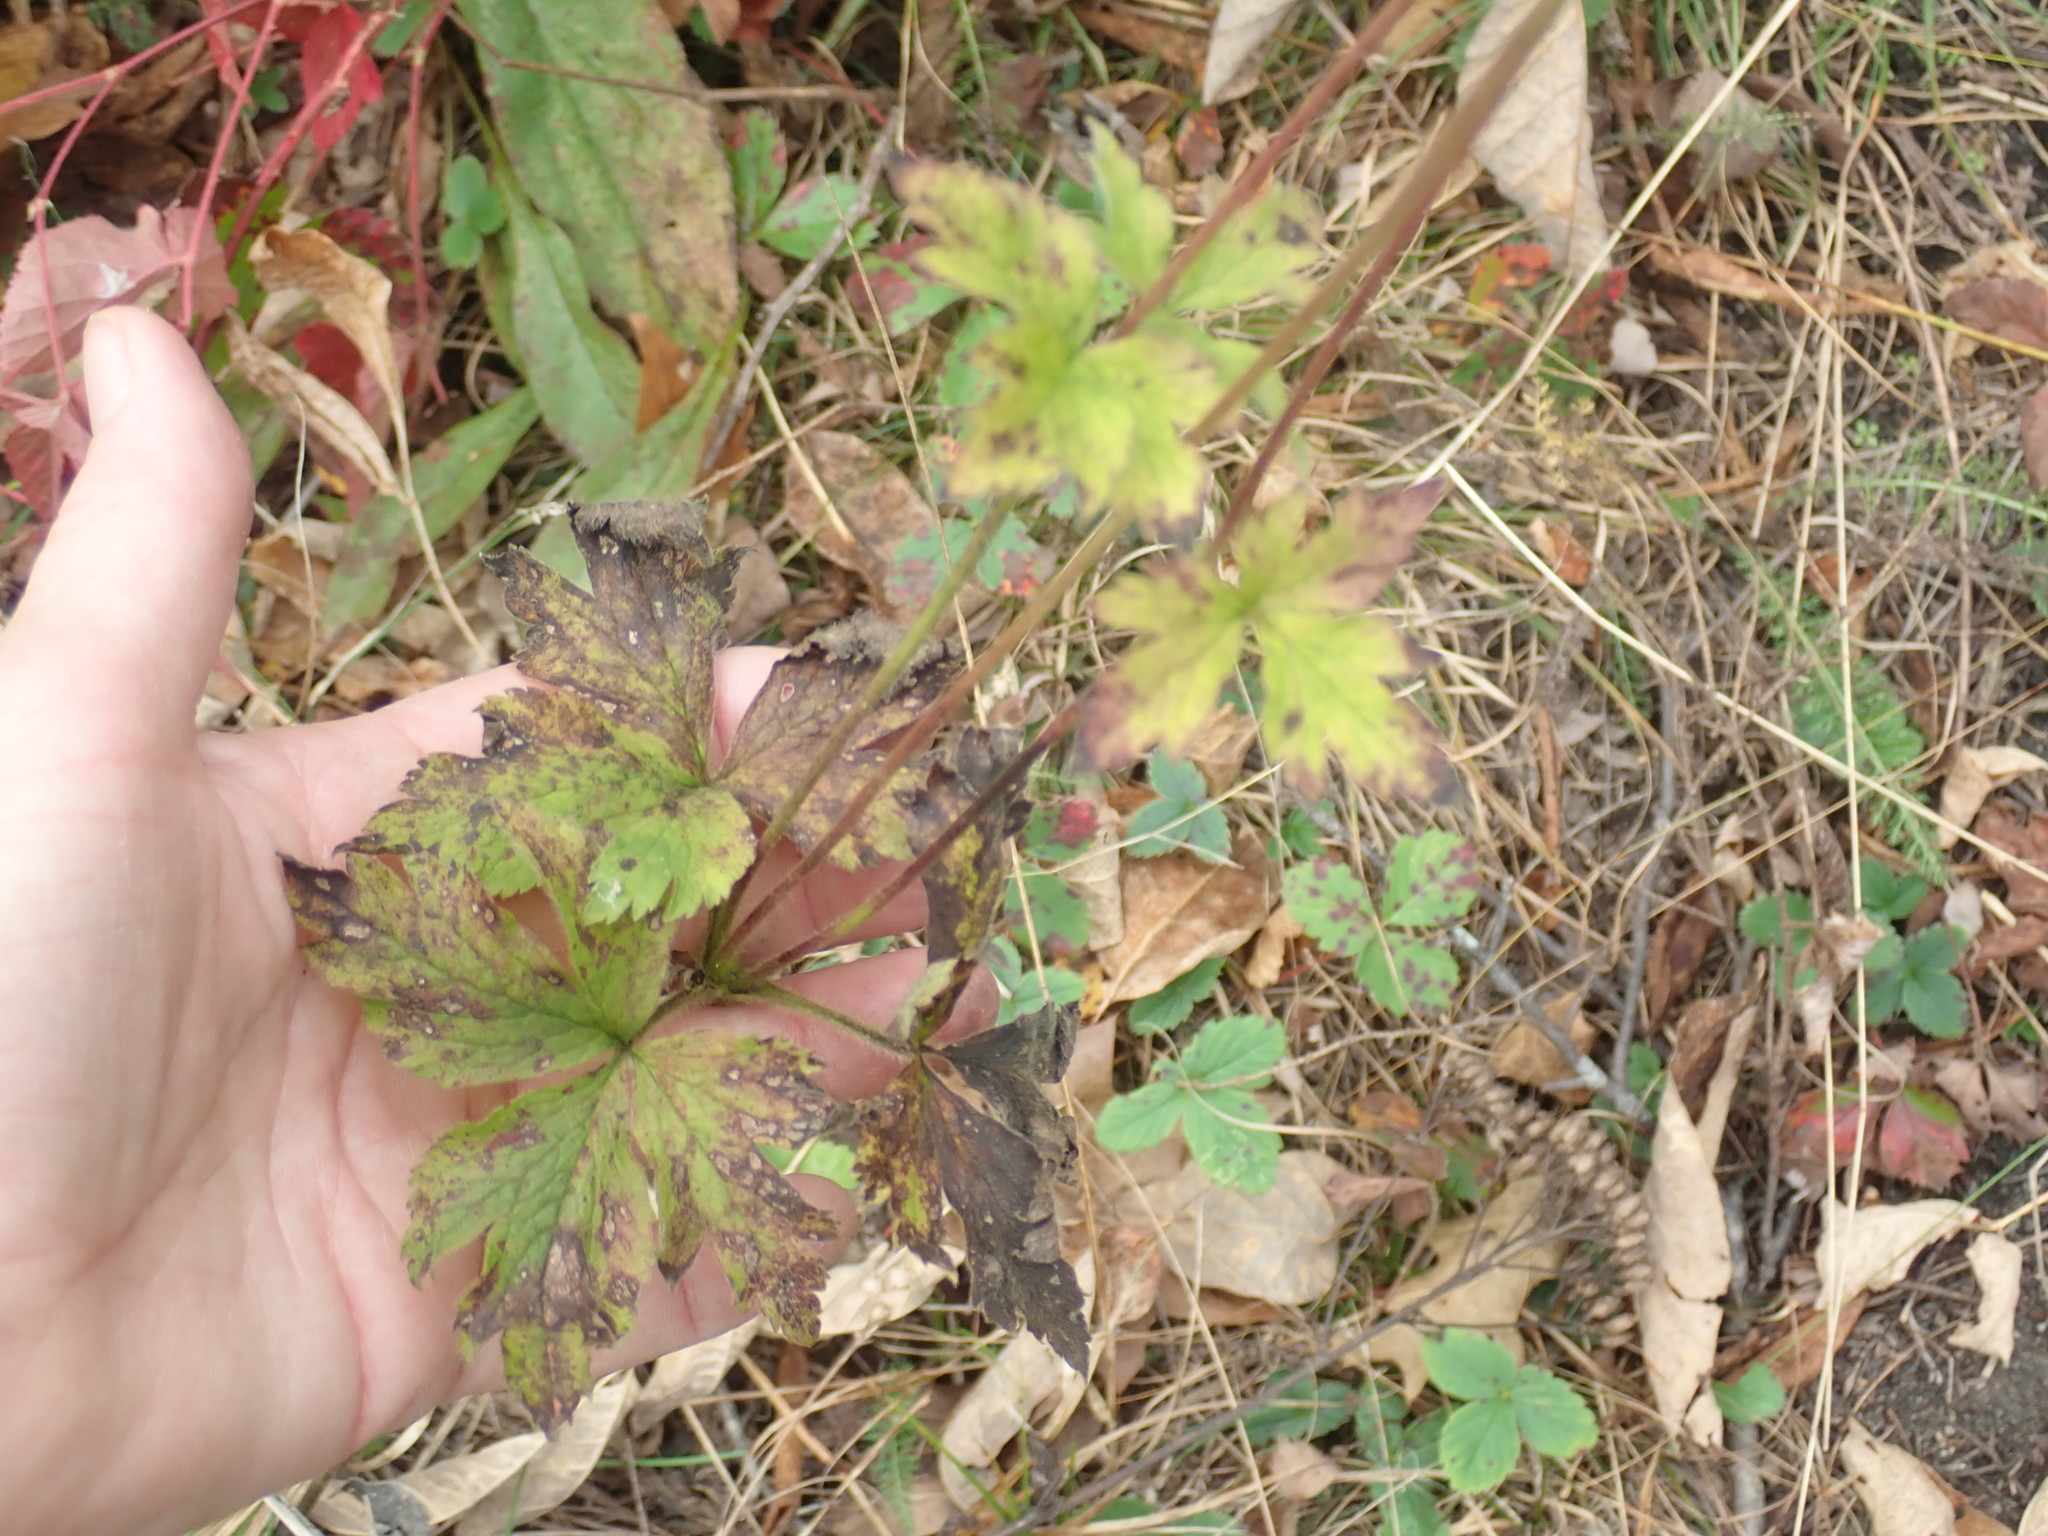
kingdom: Plantae
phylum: Tracheophyta
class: Magnoliopsida
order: Ranunculales
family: Ranunculaceae
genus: Anemone
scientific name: Anemone virginiana
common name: Tall anemone
